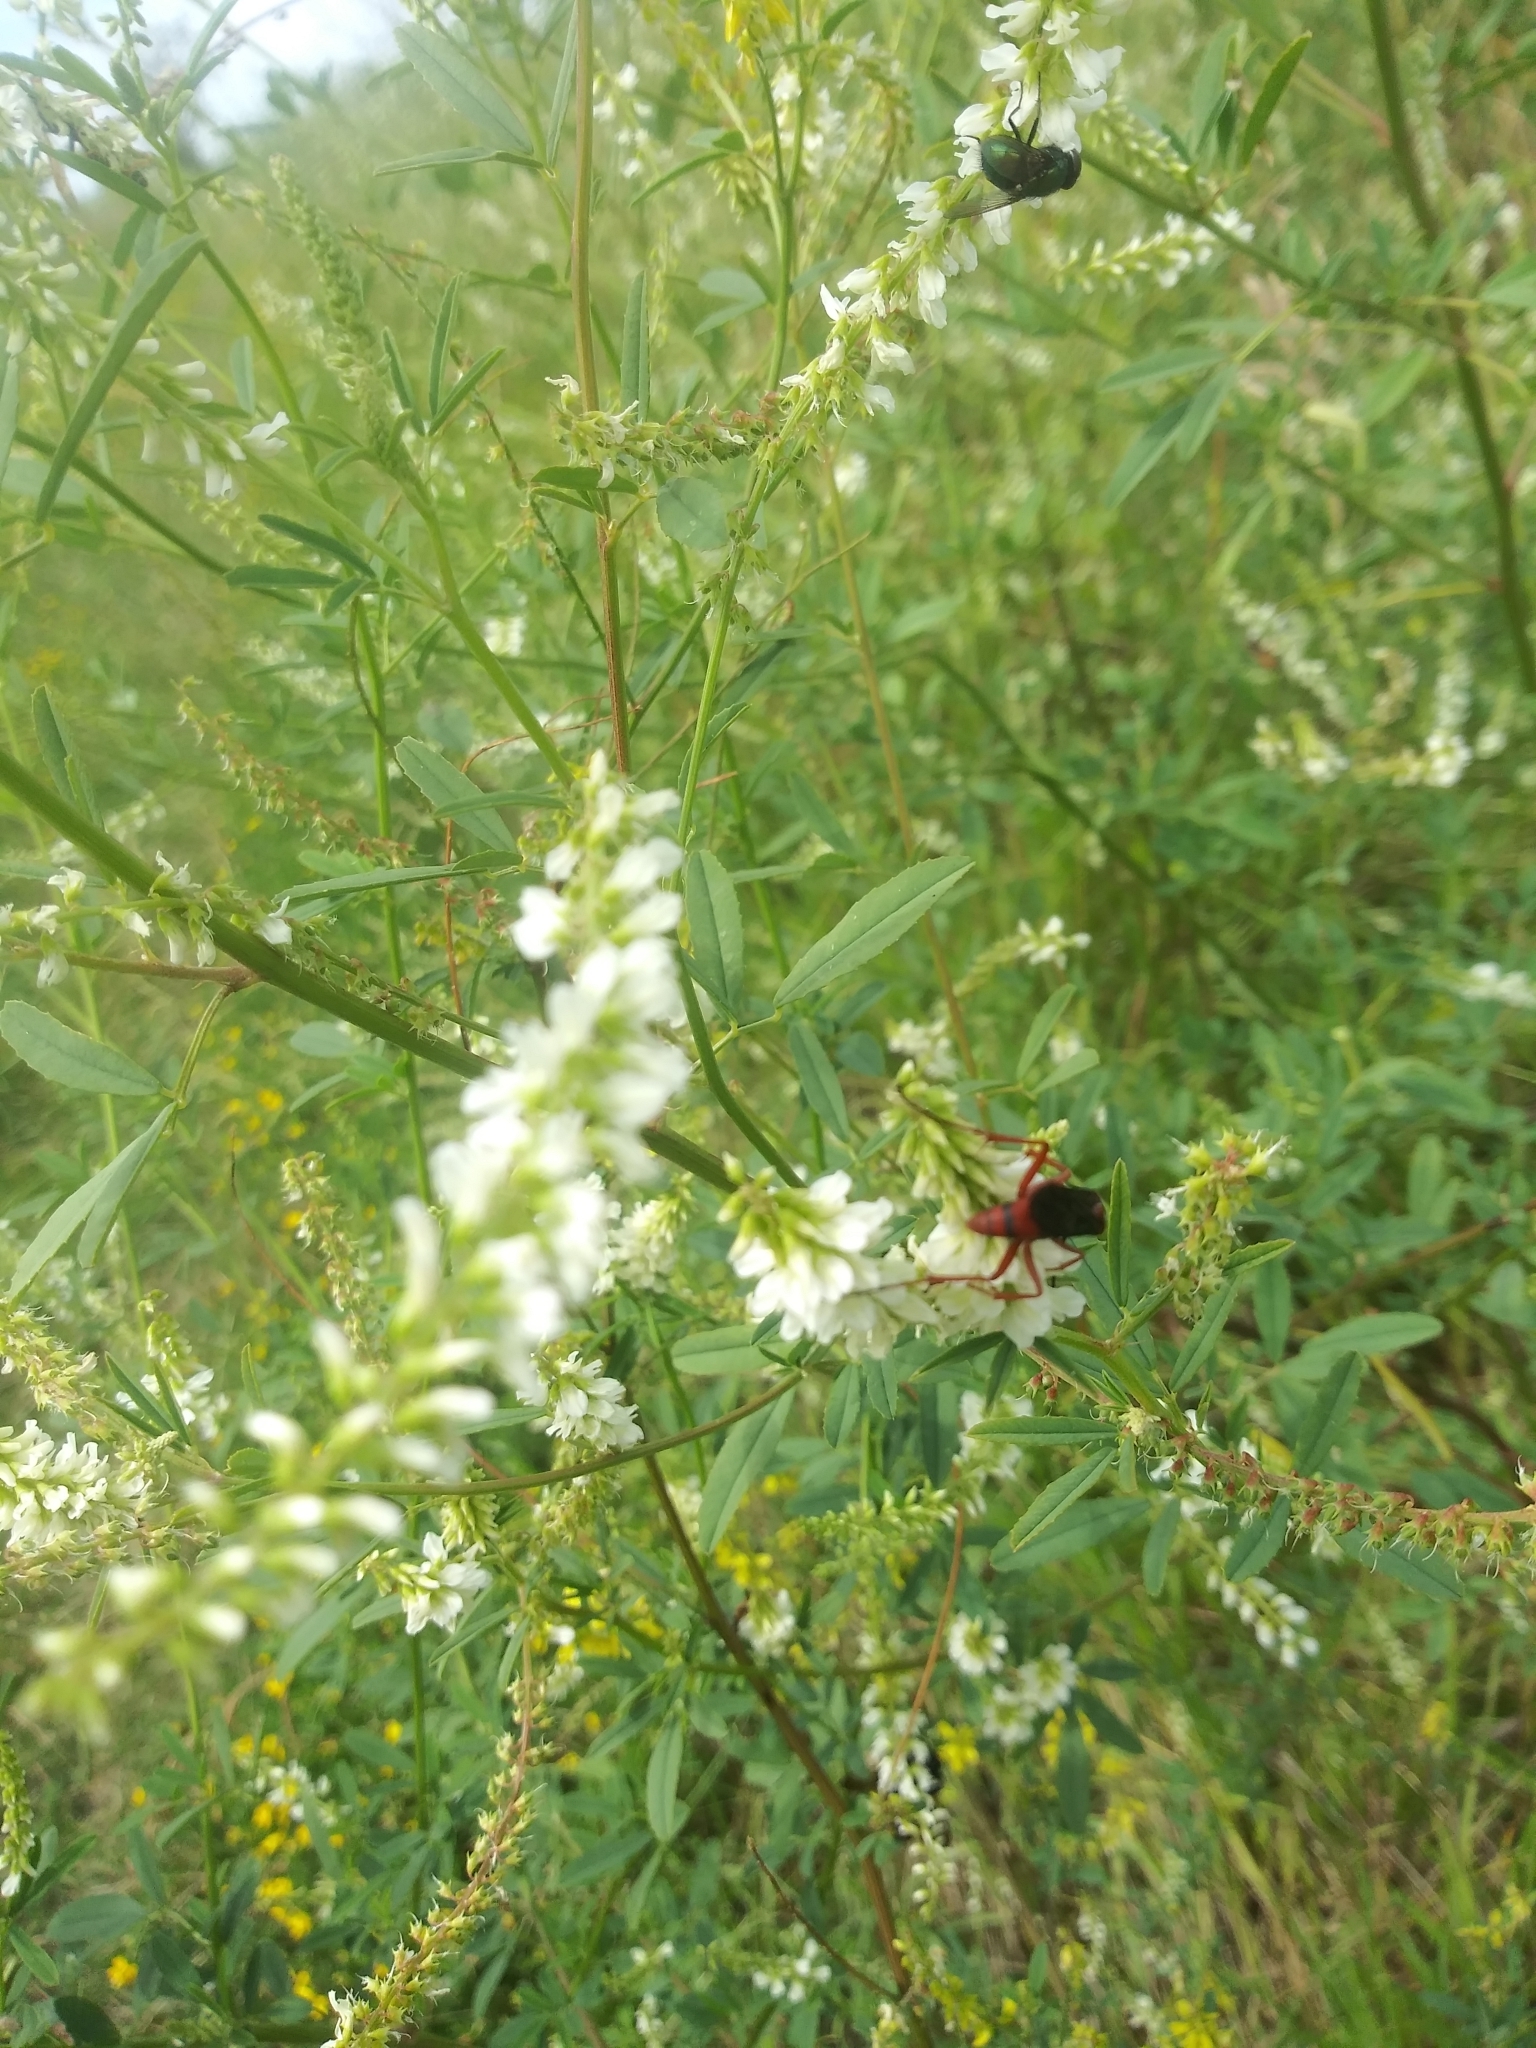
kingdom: Animalia
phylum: Arthropoda
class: Insecta
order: Hymenoptera
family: Pompilidae
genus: Tachypompilus
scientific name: Tachypompilus ferrugineus
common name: Rusty spider wasp
